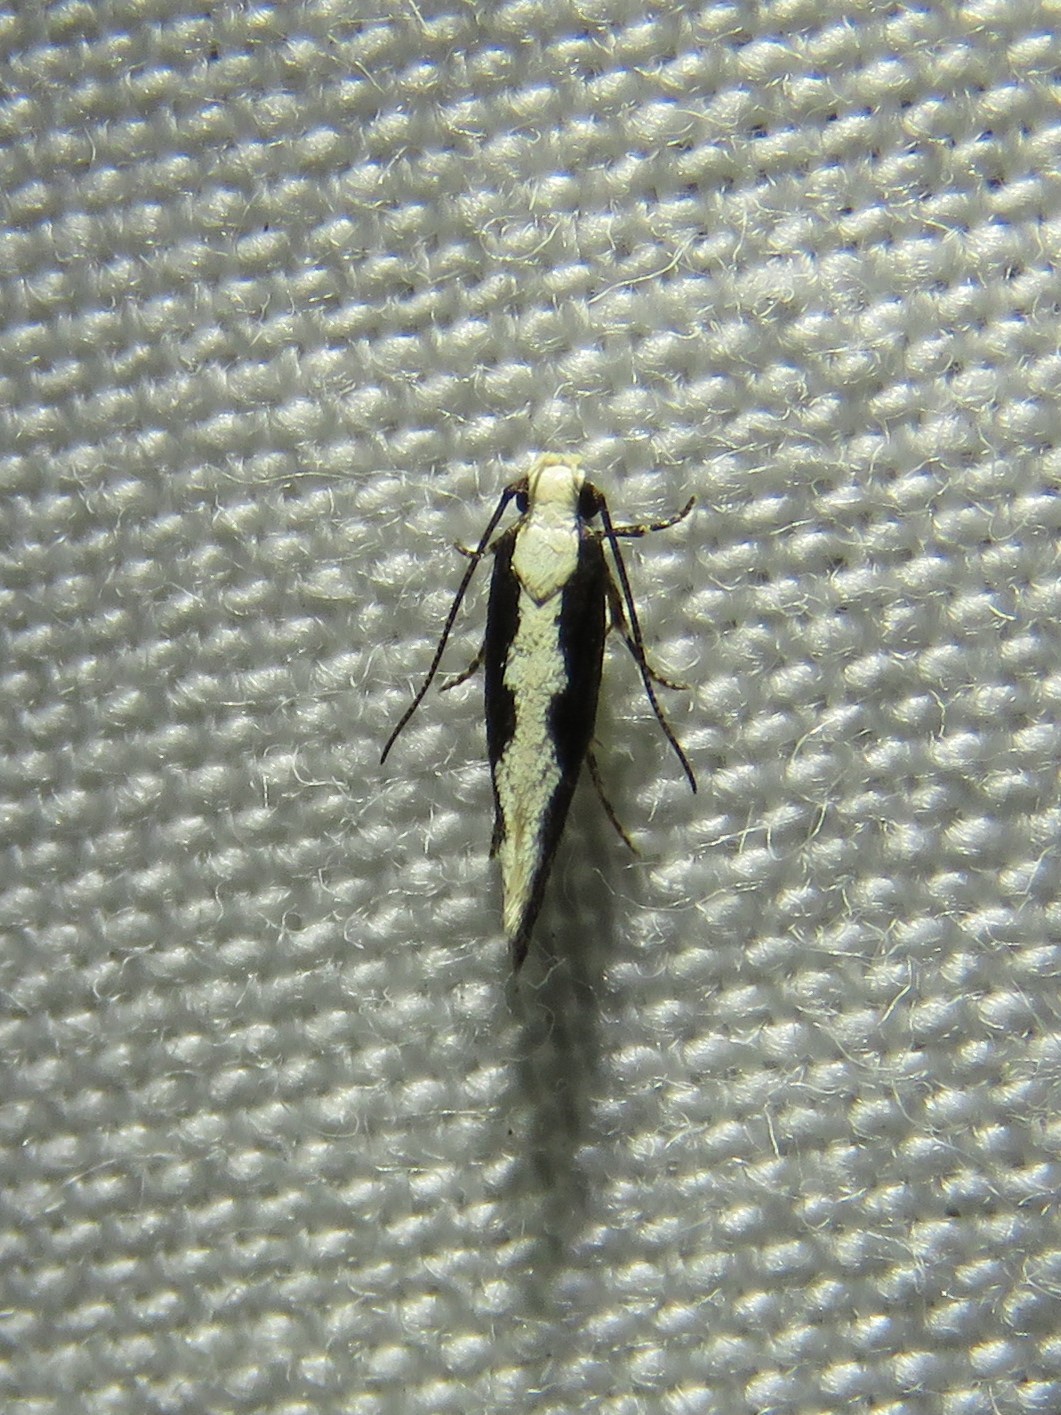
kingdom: Animalia
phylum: Arthropoda
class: Insecta
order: Lepidoptera
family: Gelechiidae
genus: Aristotelia
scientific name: Aristotelia corallina
